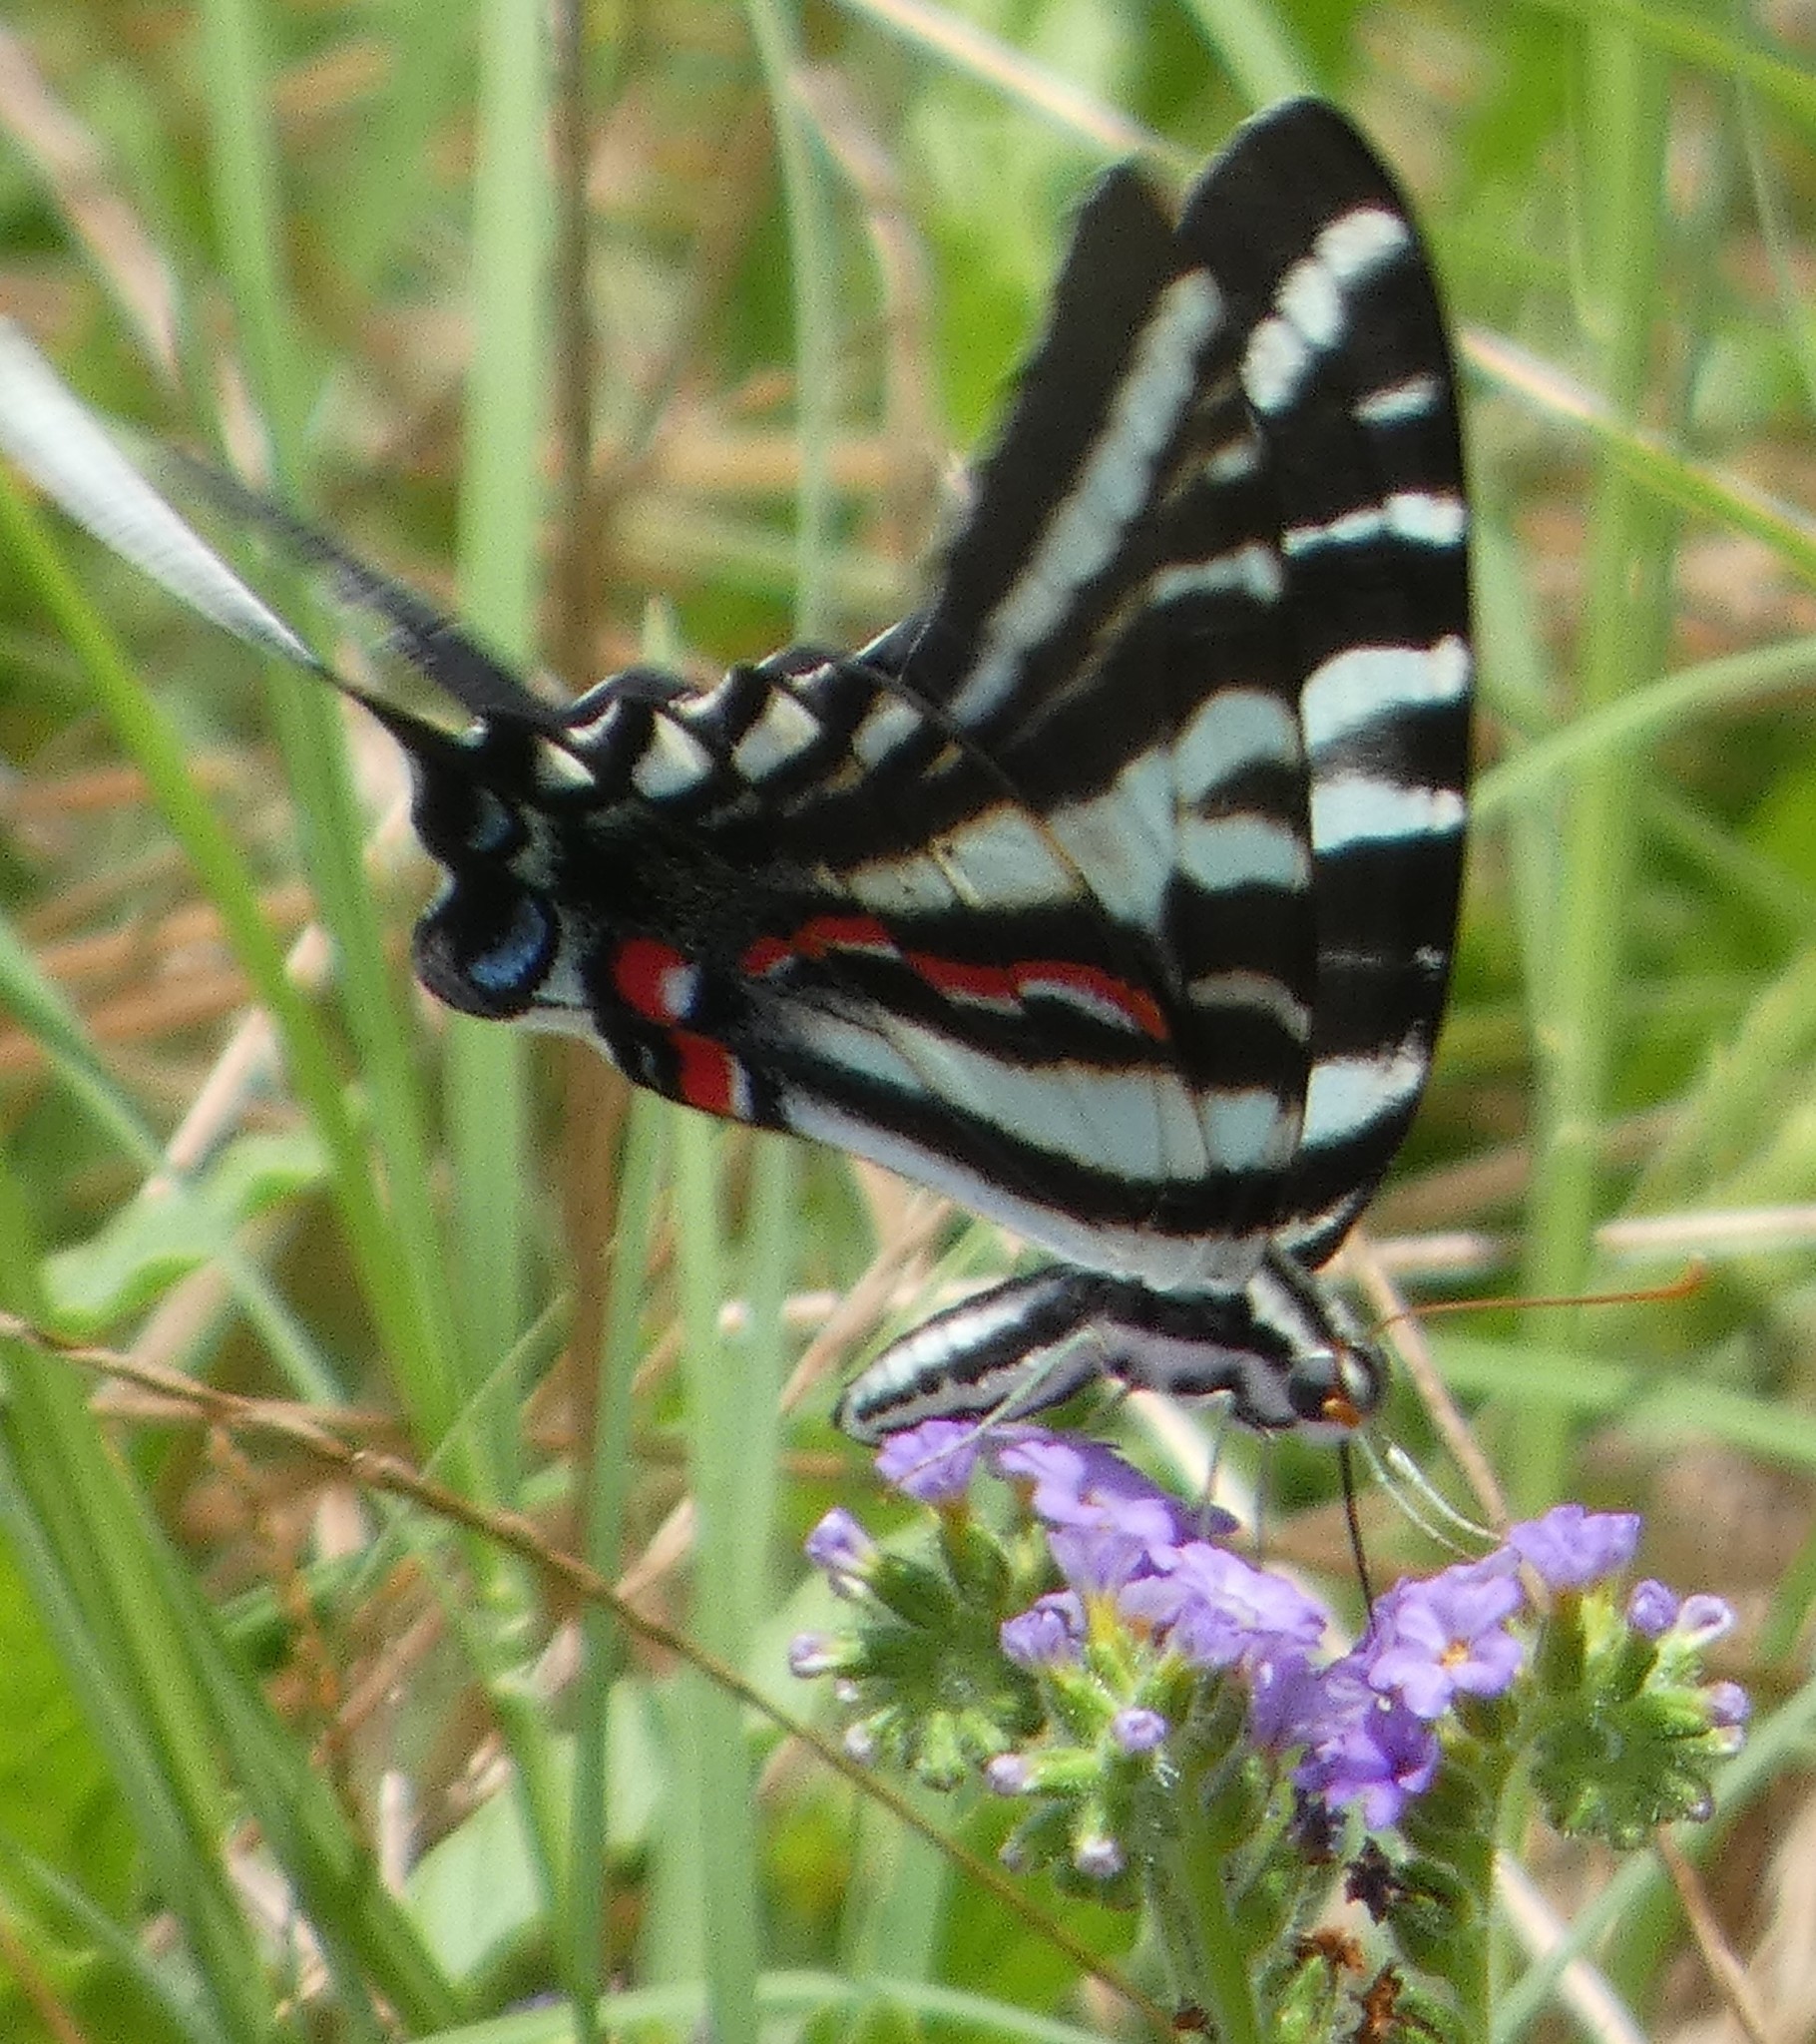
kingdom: Animalia
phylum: Arthropoda
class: Insecta
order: Lepidoptera
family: Papilionidae
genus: Protographium
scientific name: Protographium marcellus
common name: Zebra swallowtail
